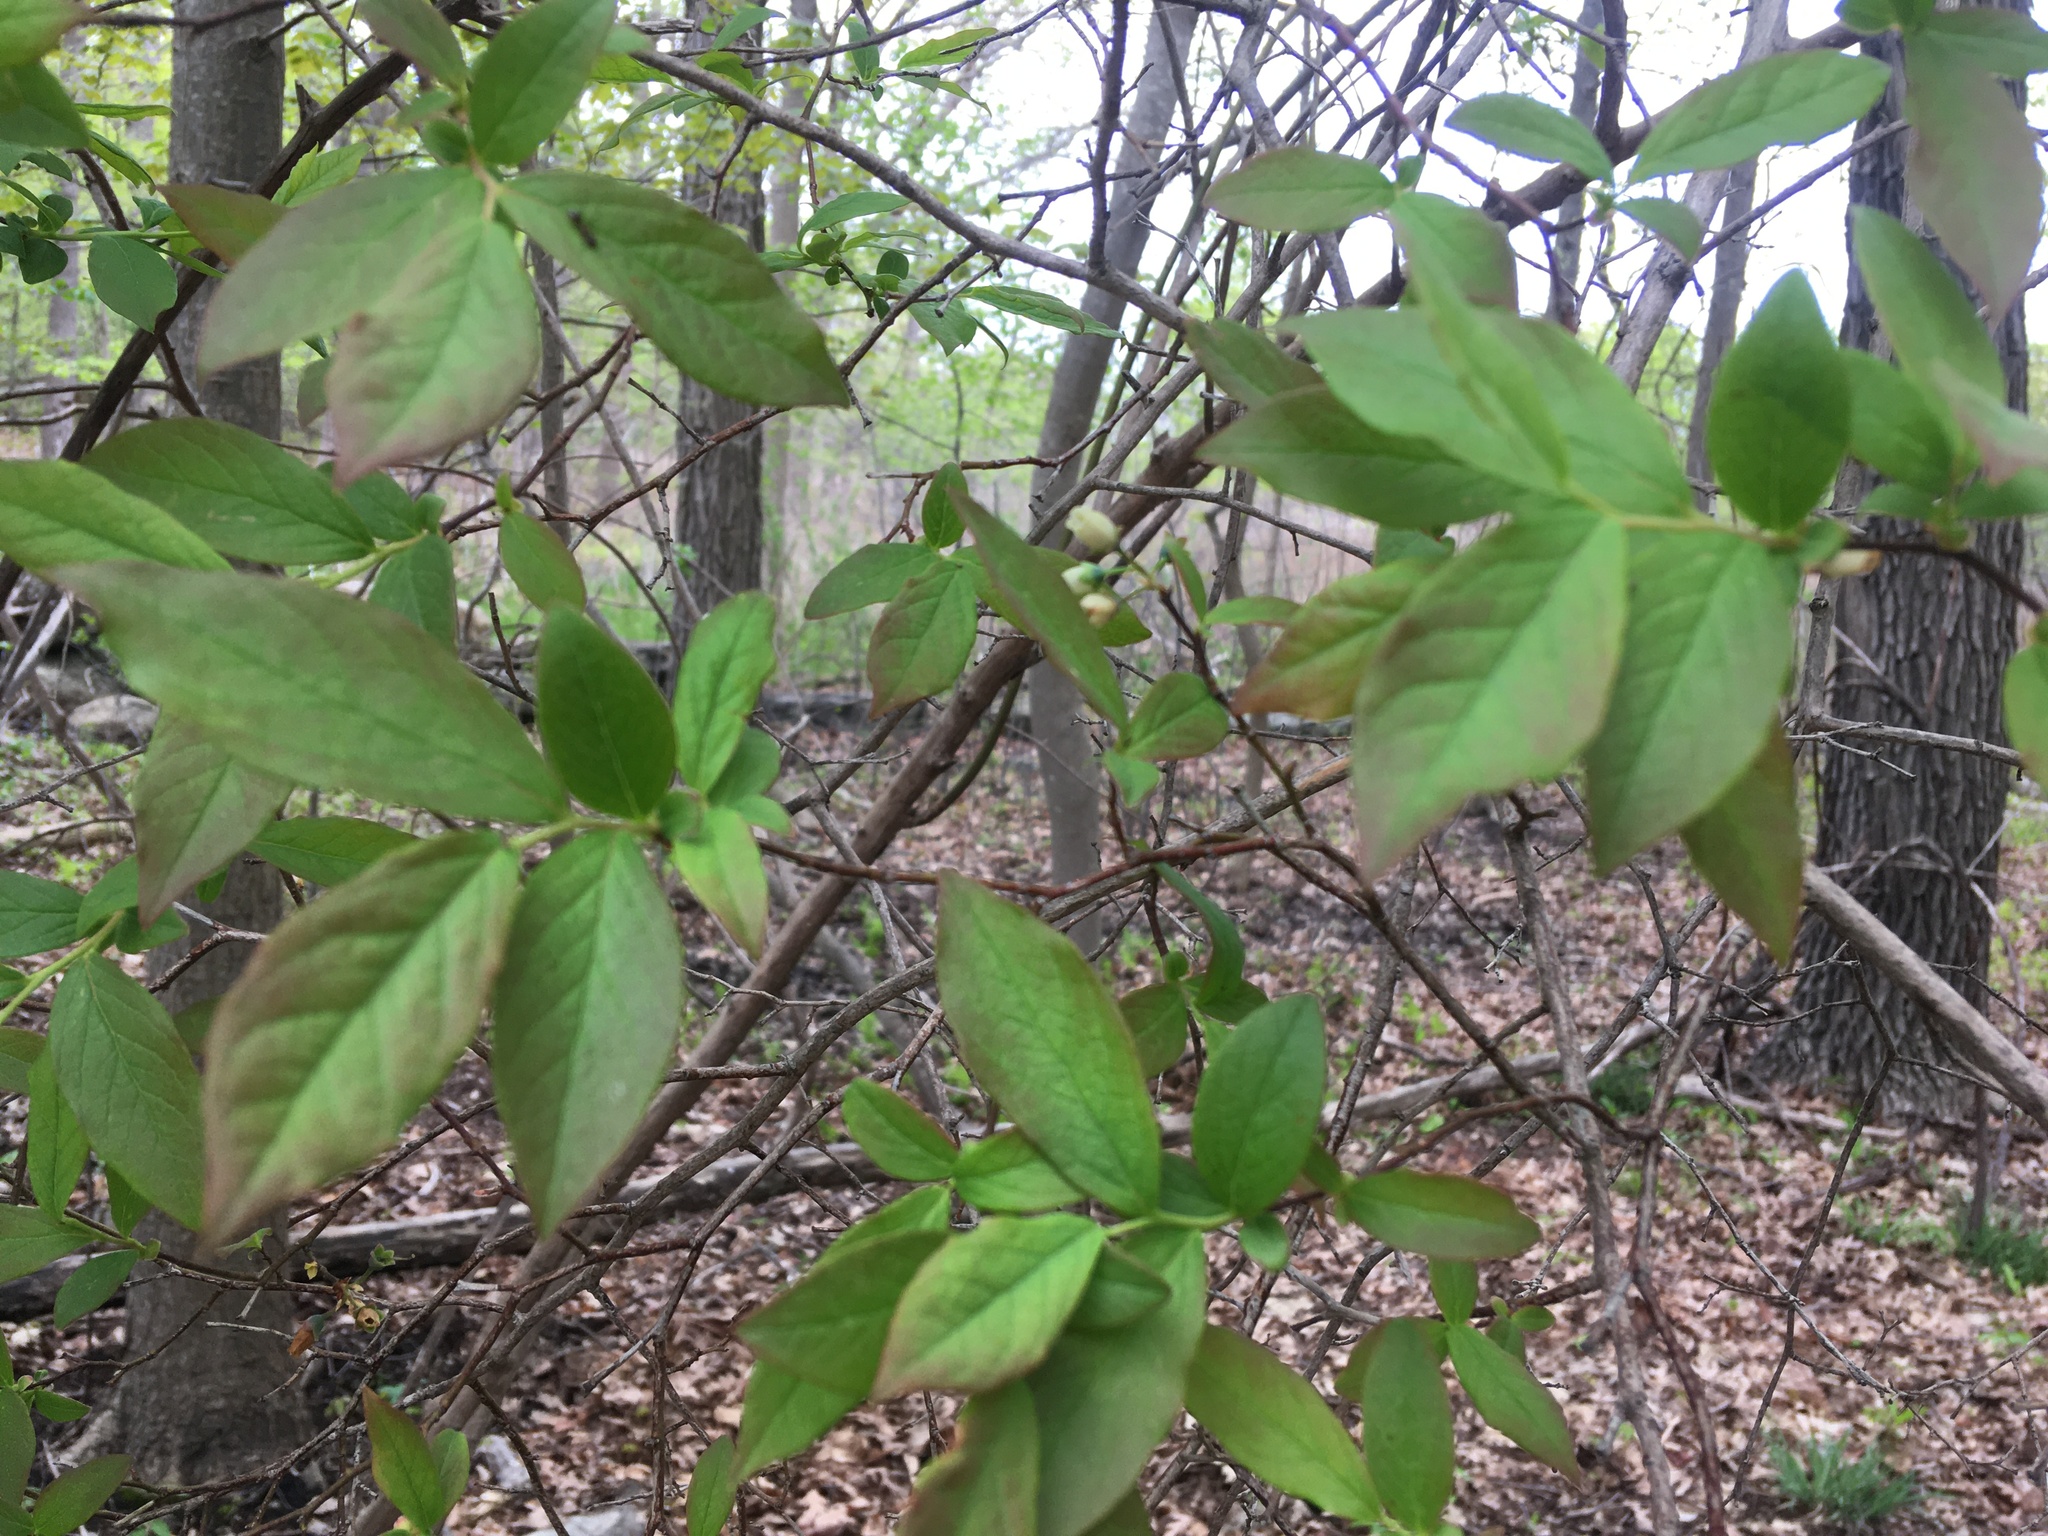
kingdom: Plantae
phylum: Tracheophyta
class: Magnoliopsida
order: Ericales
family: Ericaceae
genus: Vaccinium
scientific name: Vaccinium corymbosum
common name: Blueberry
